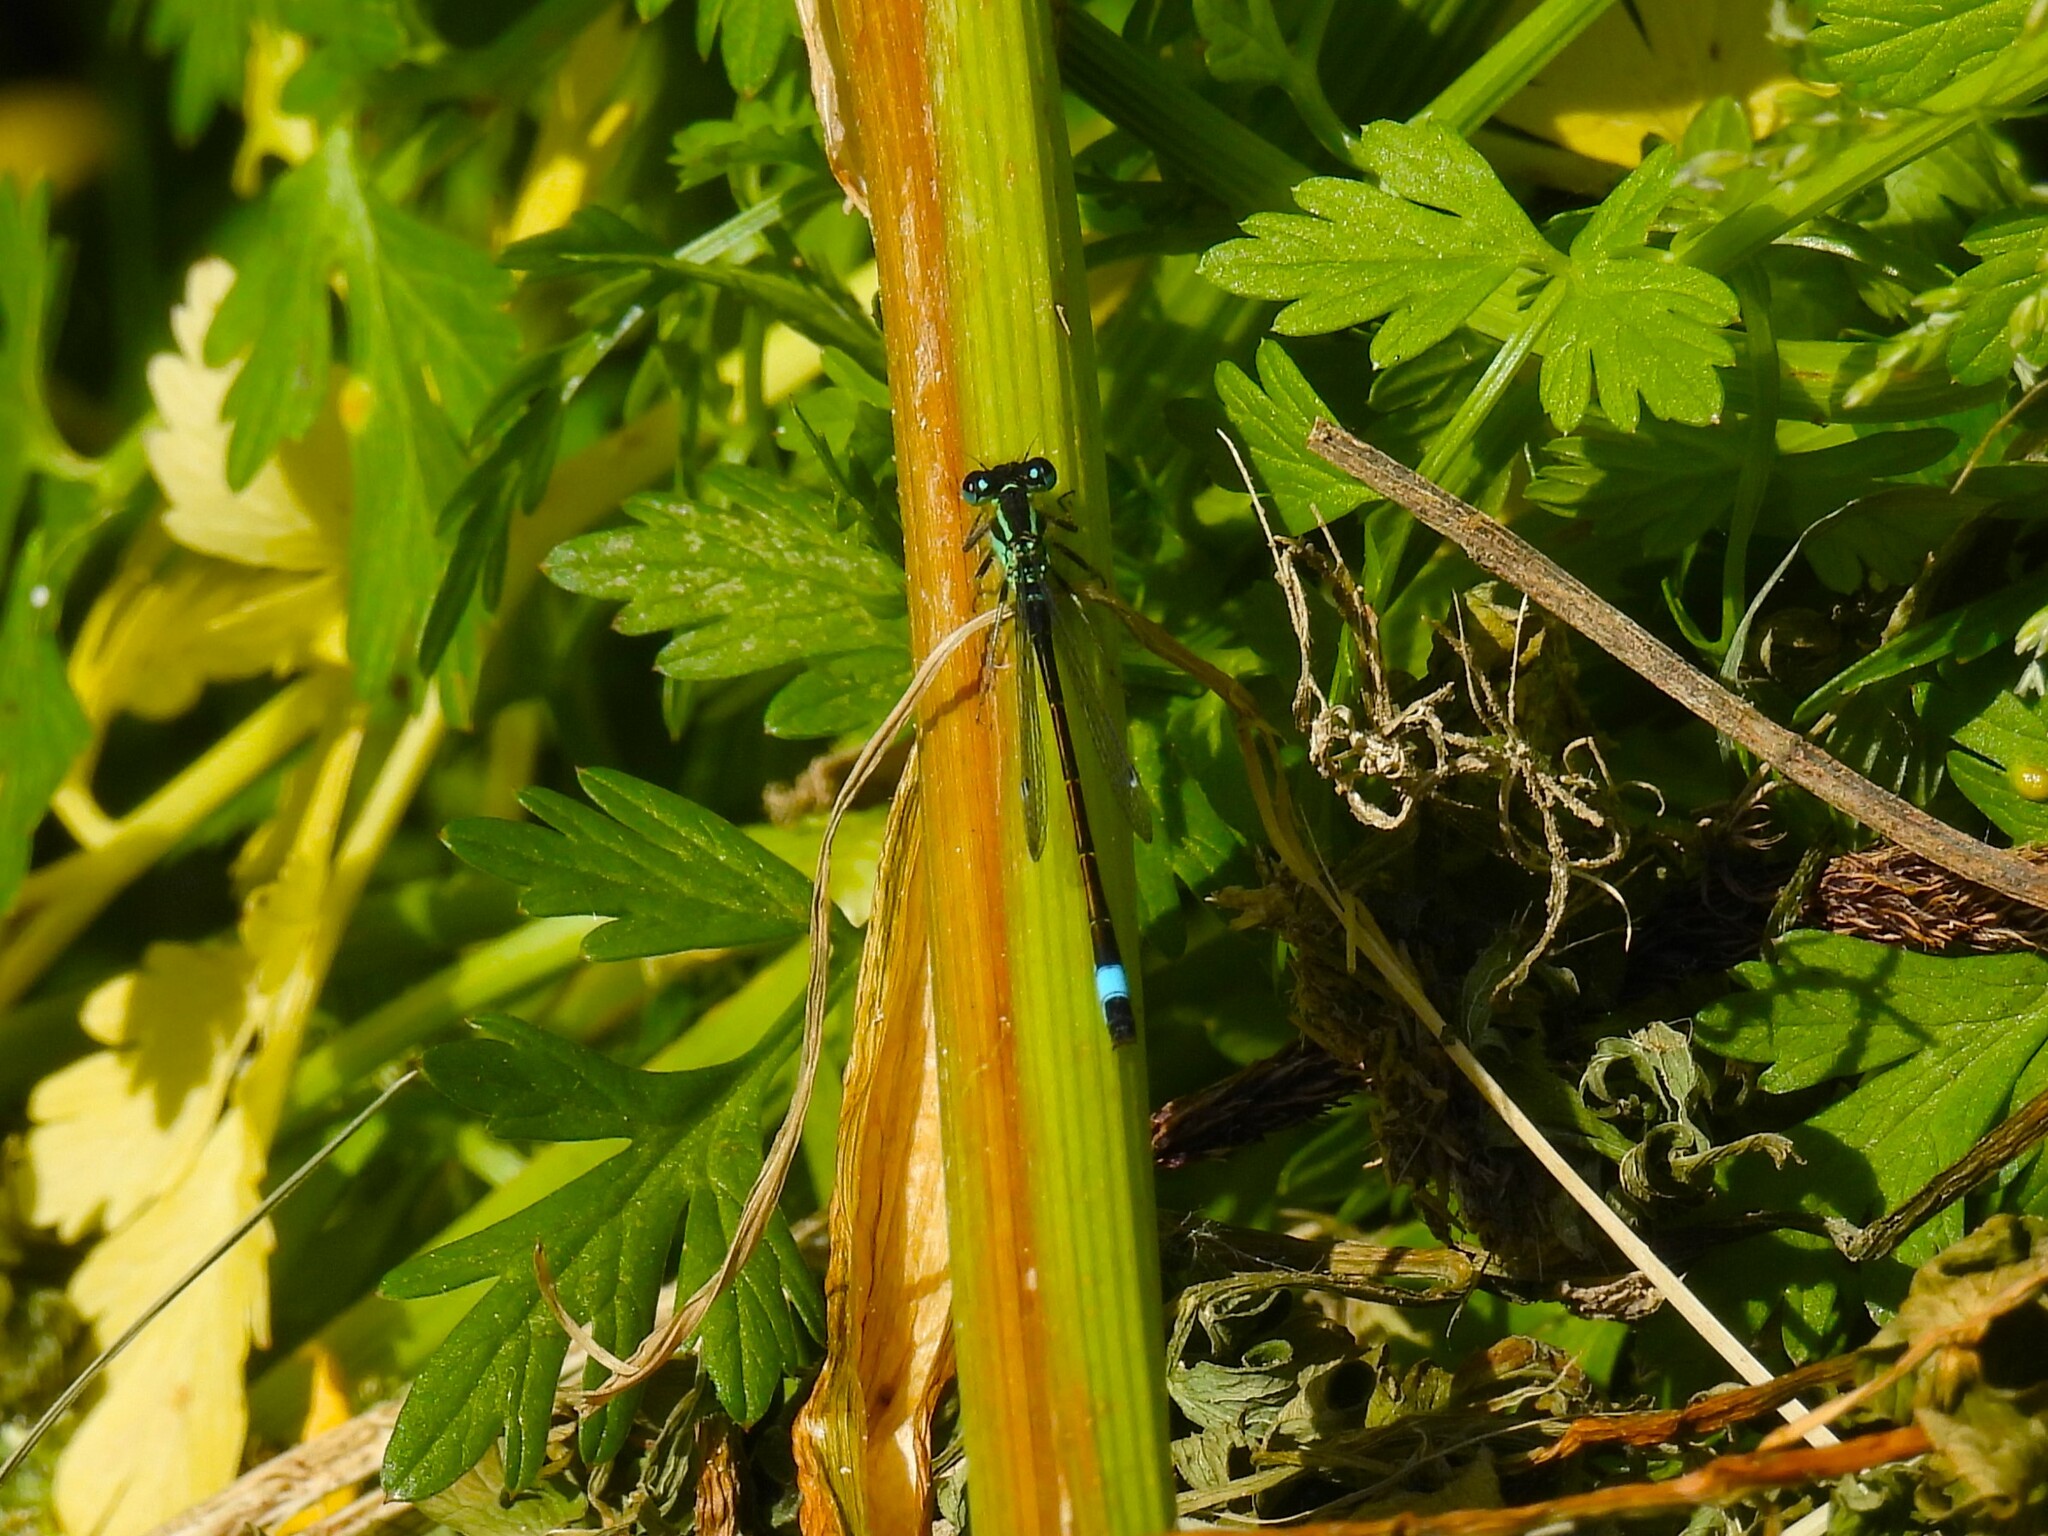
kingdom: Animalia
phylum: Arthropoda
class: Insecta
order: Odonata
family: Coenagrionidae
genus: Ischnura
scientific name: Ischnura elegans
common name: Blue-tailed damselfly
